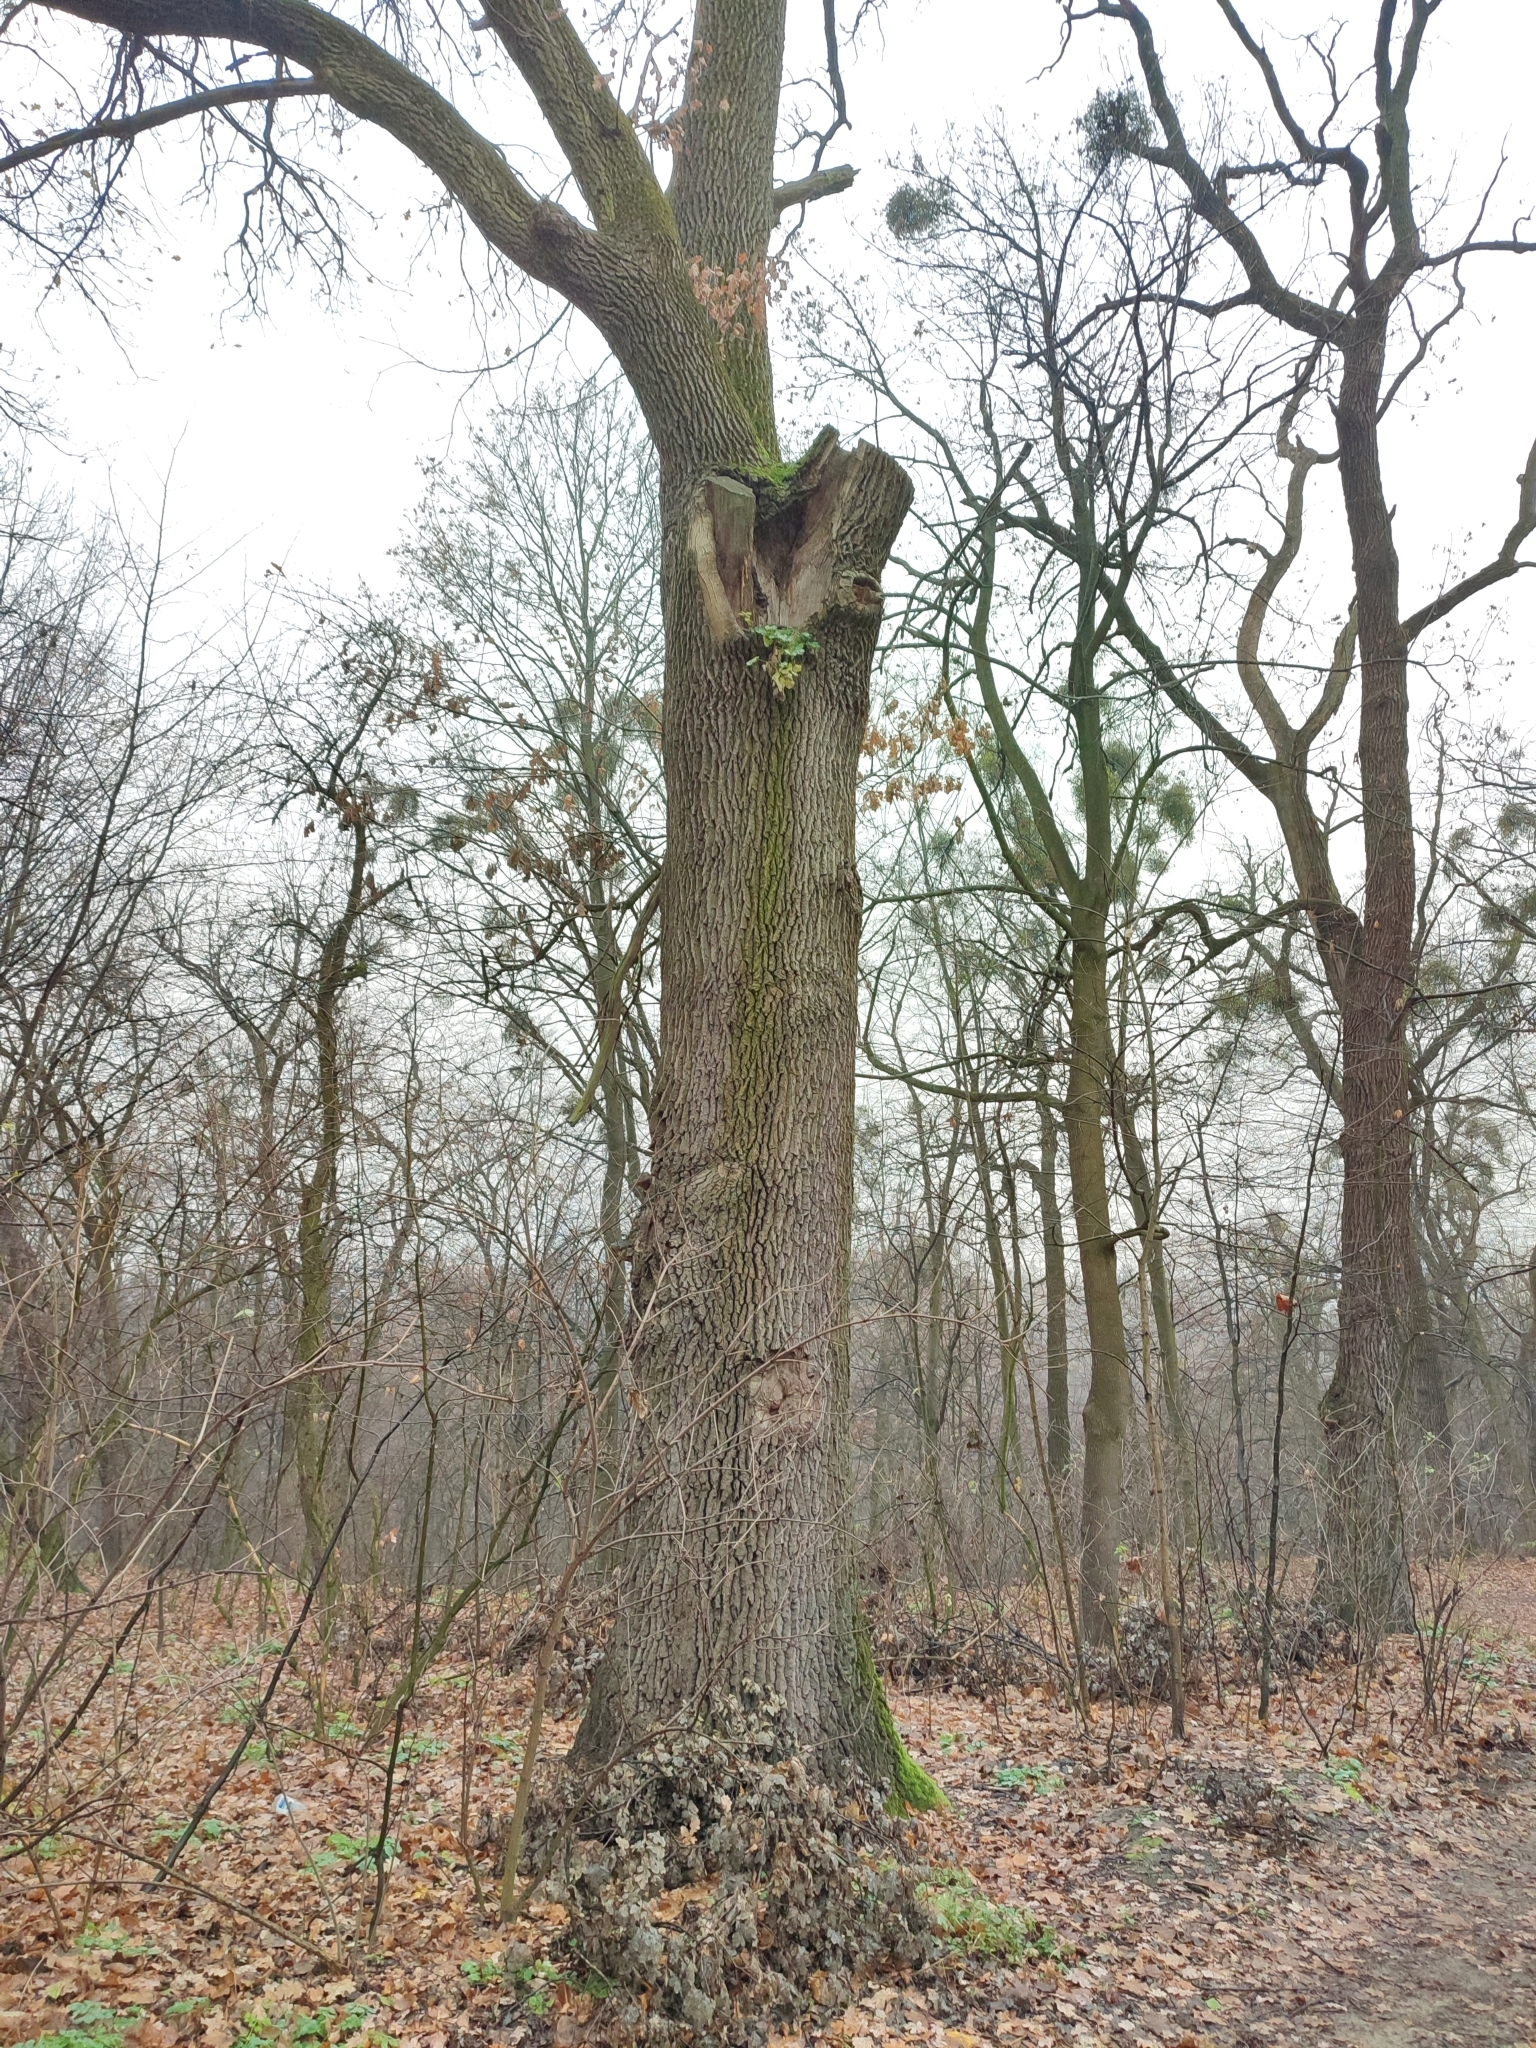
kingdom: Plantae
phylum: Tracheophyta
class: Magnoliopsida
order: Fagales
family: Fagaceae
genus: Quercus
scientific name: Quercus robur
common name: Pedunculate oak
